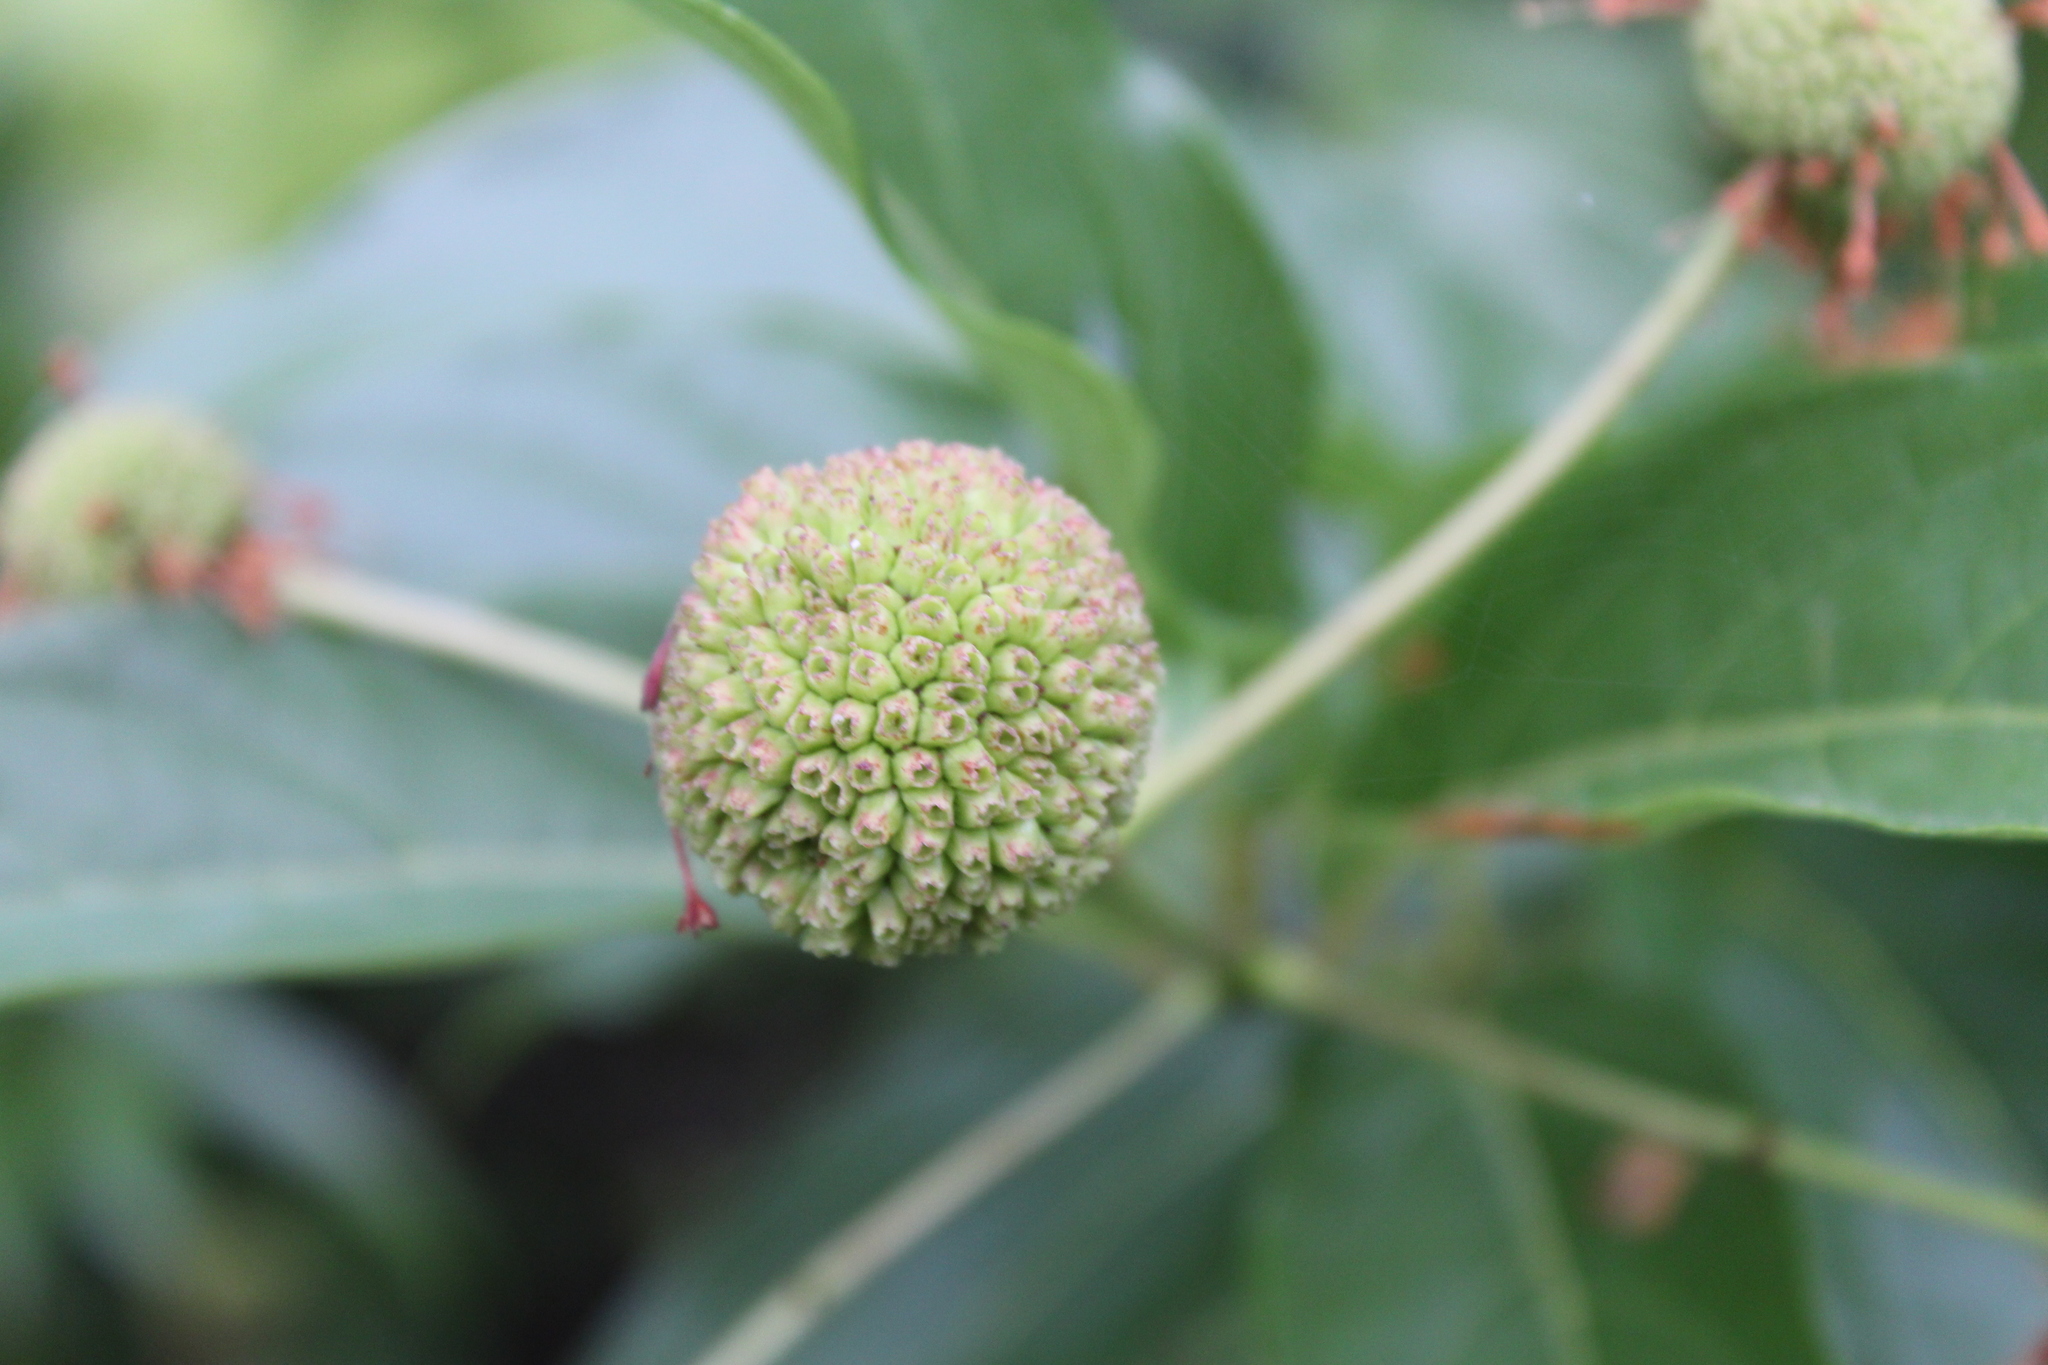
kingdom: Plantae
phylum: Tracheophyta
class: Magnoliopsida
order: Gentianales
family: Rubiaceae
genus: Cephalanthus
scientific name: Cephalanthus occidentalis
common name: Button-willow
